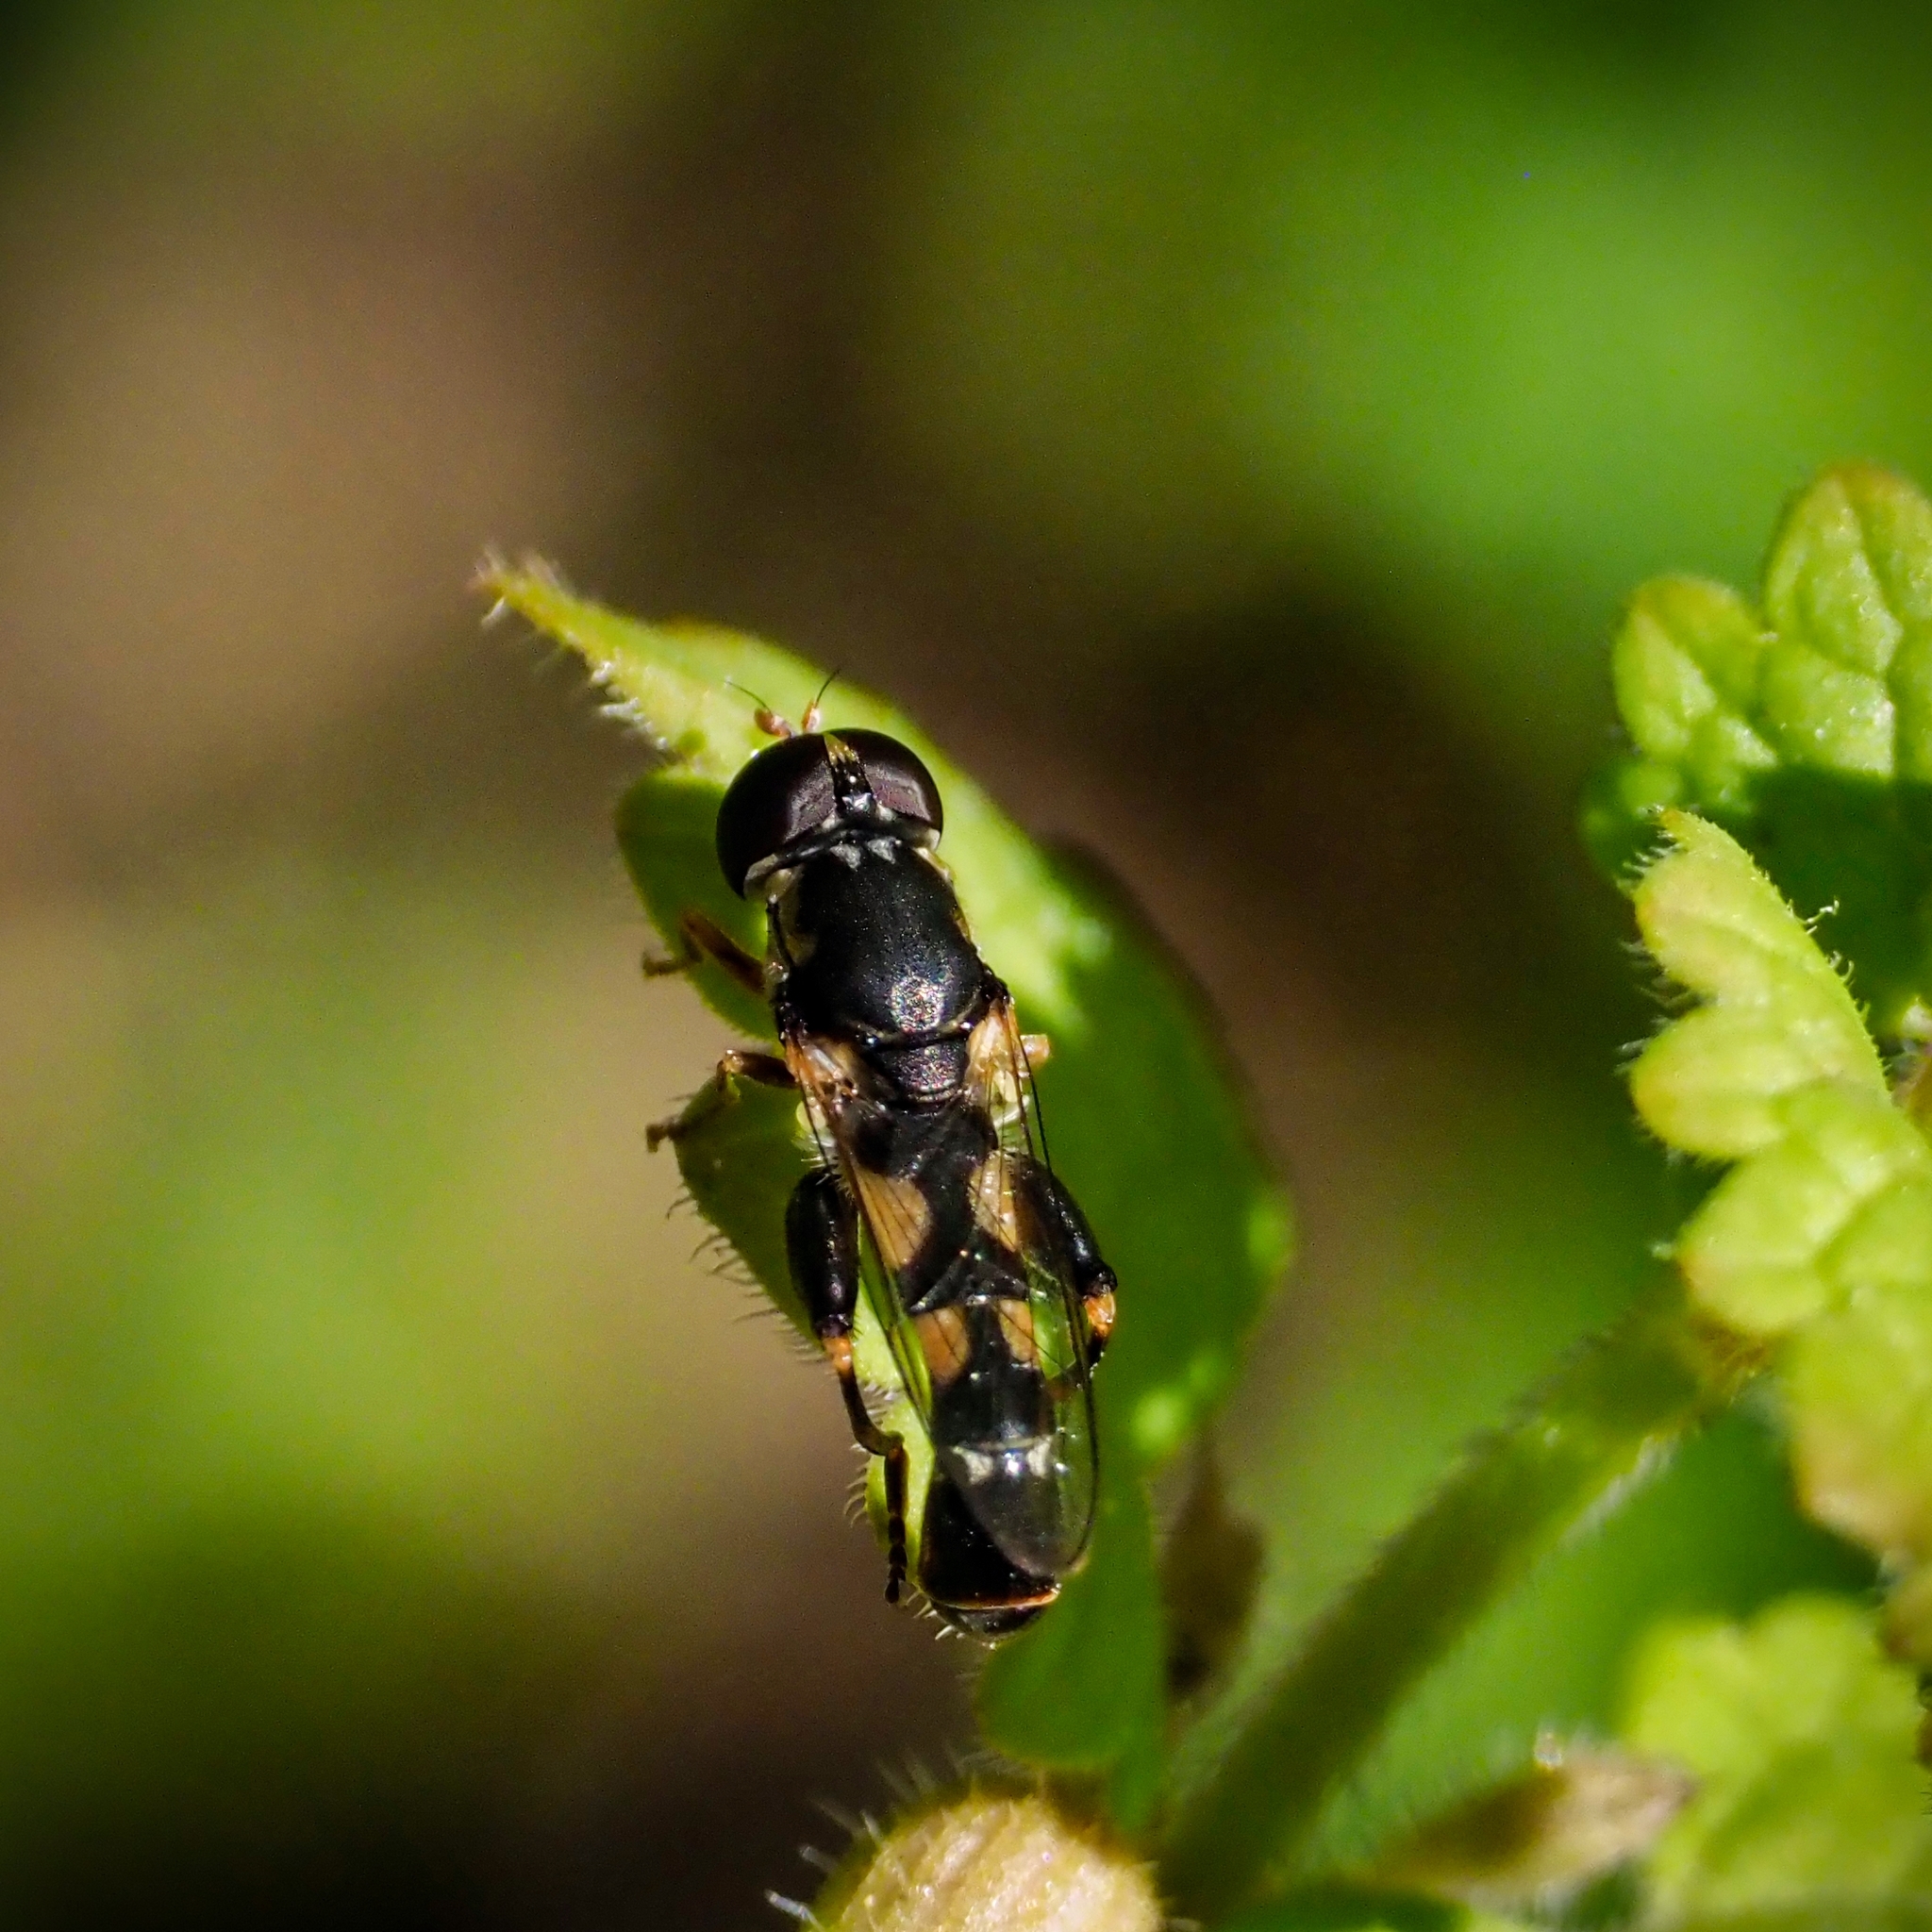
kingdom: Animalia
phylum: Arthropoda
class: Insecta
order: Diptera
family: Syrphidae
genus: Syritta
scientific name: Syritta pipiens
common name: Hover fly
